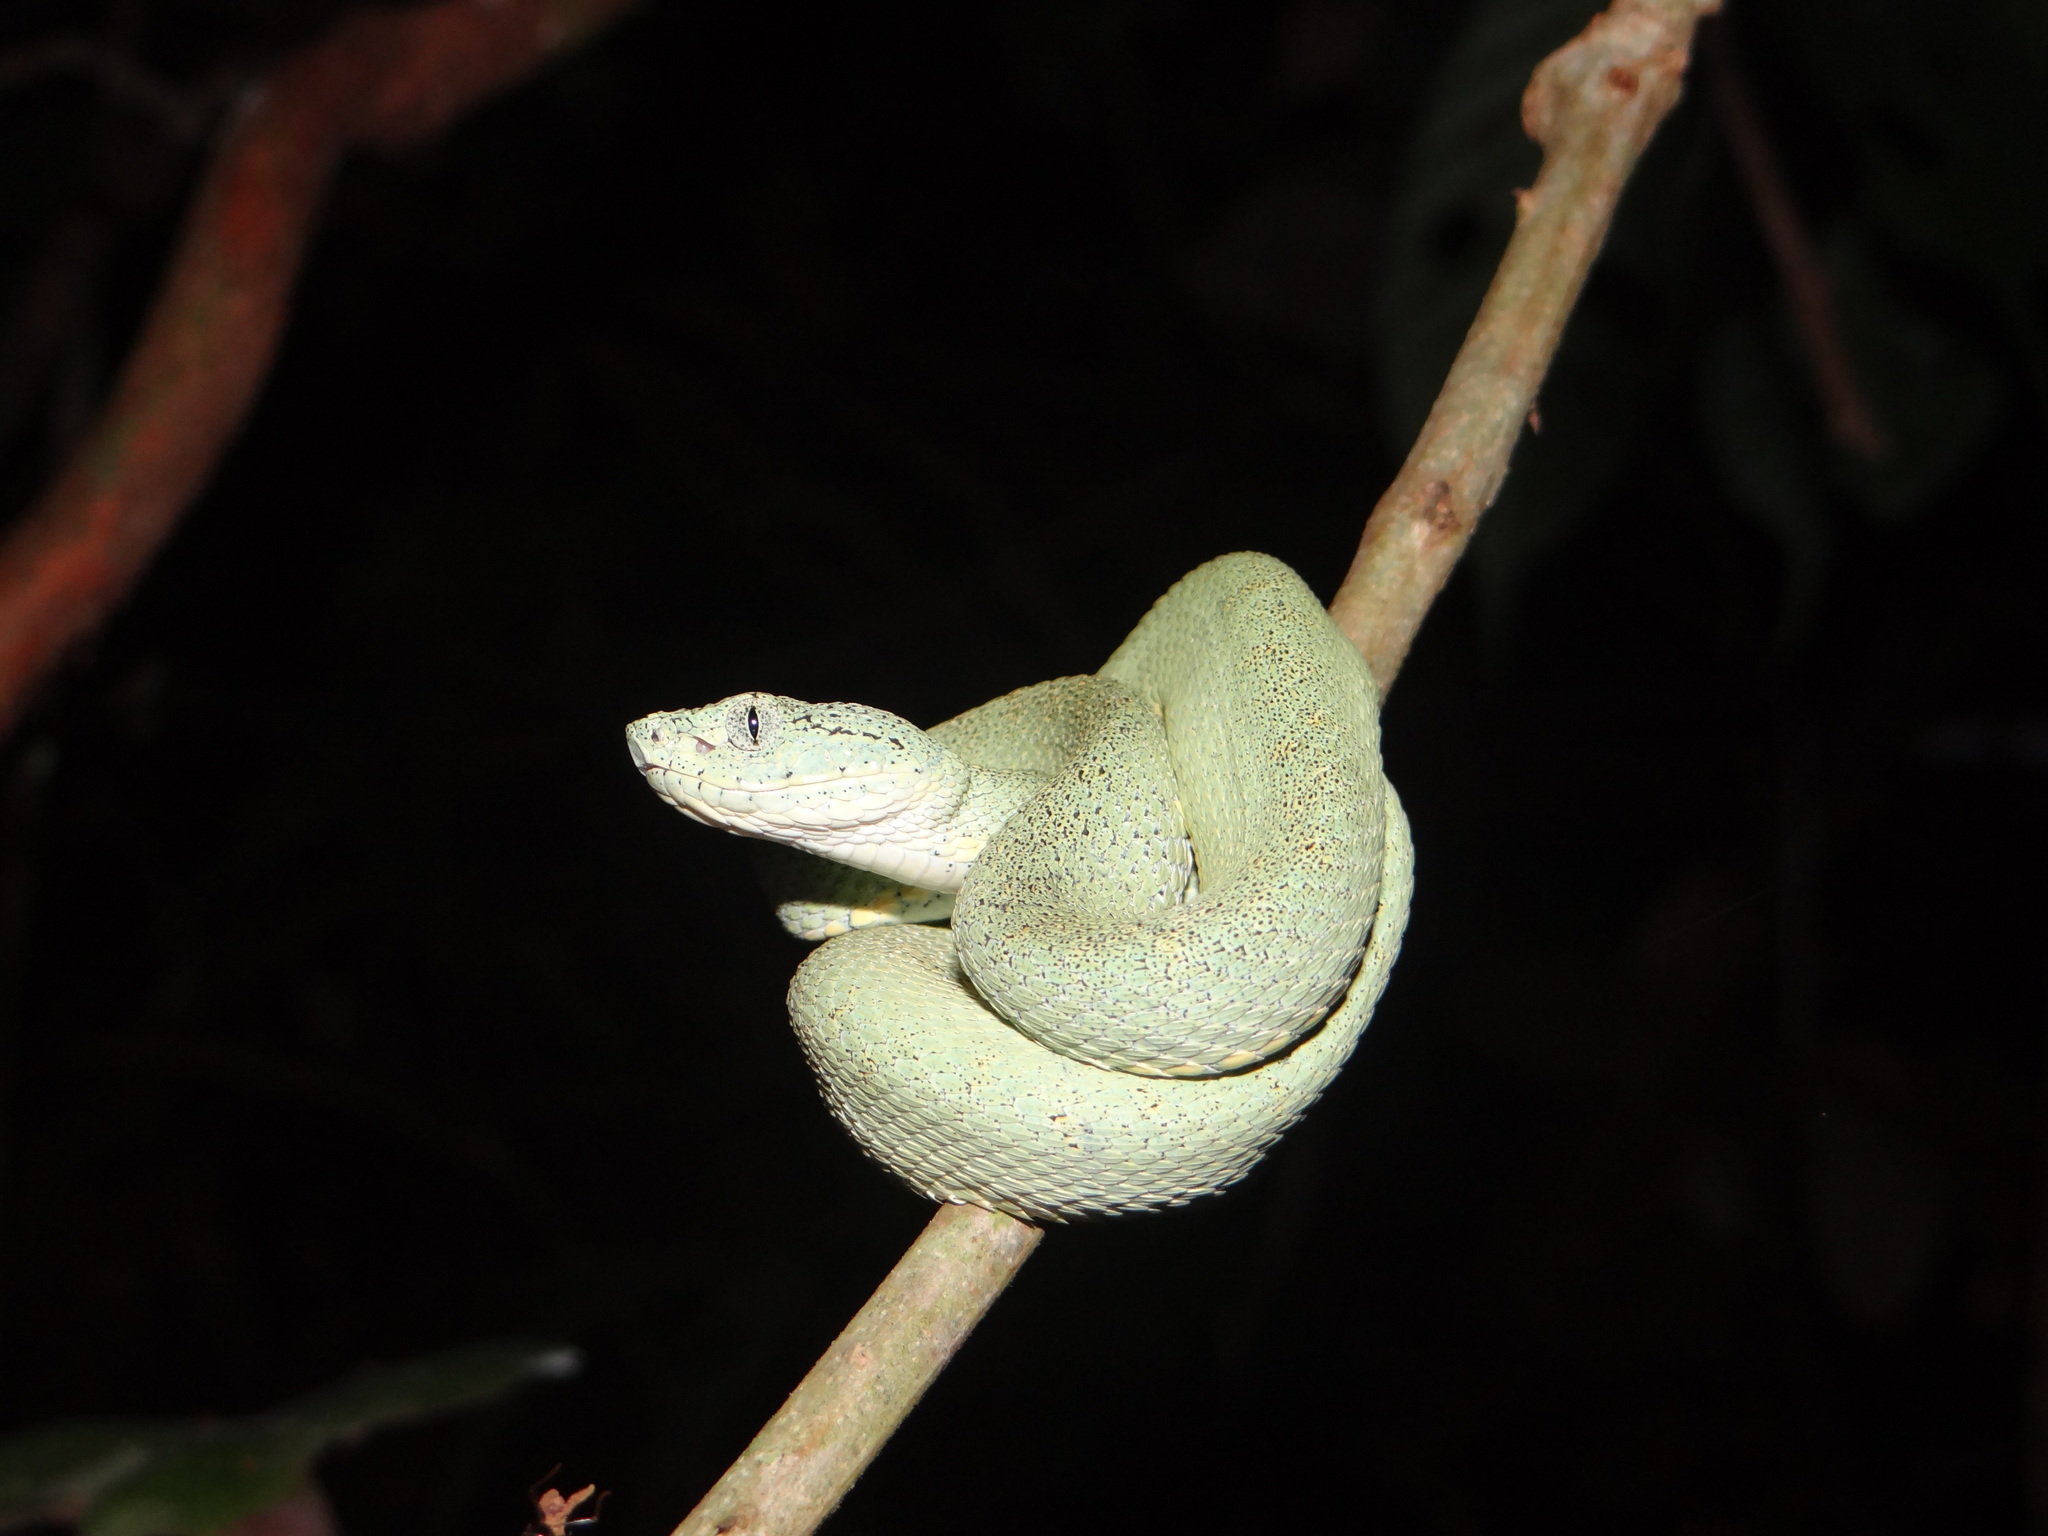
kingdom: Animalia
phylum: Chordata
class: Squamata
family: Viperidae
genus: Bothrops
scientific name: Bothrops bilineatus
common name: Green jararaca
